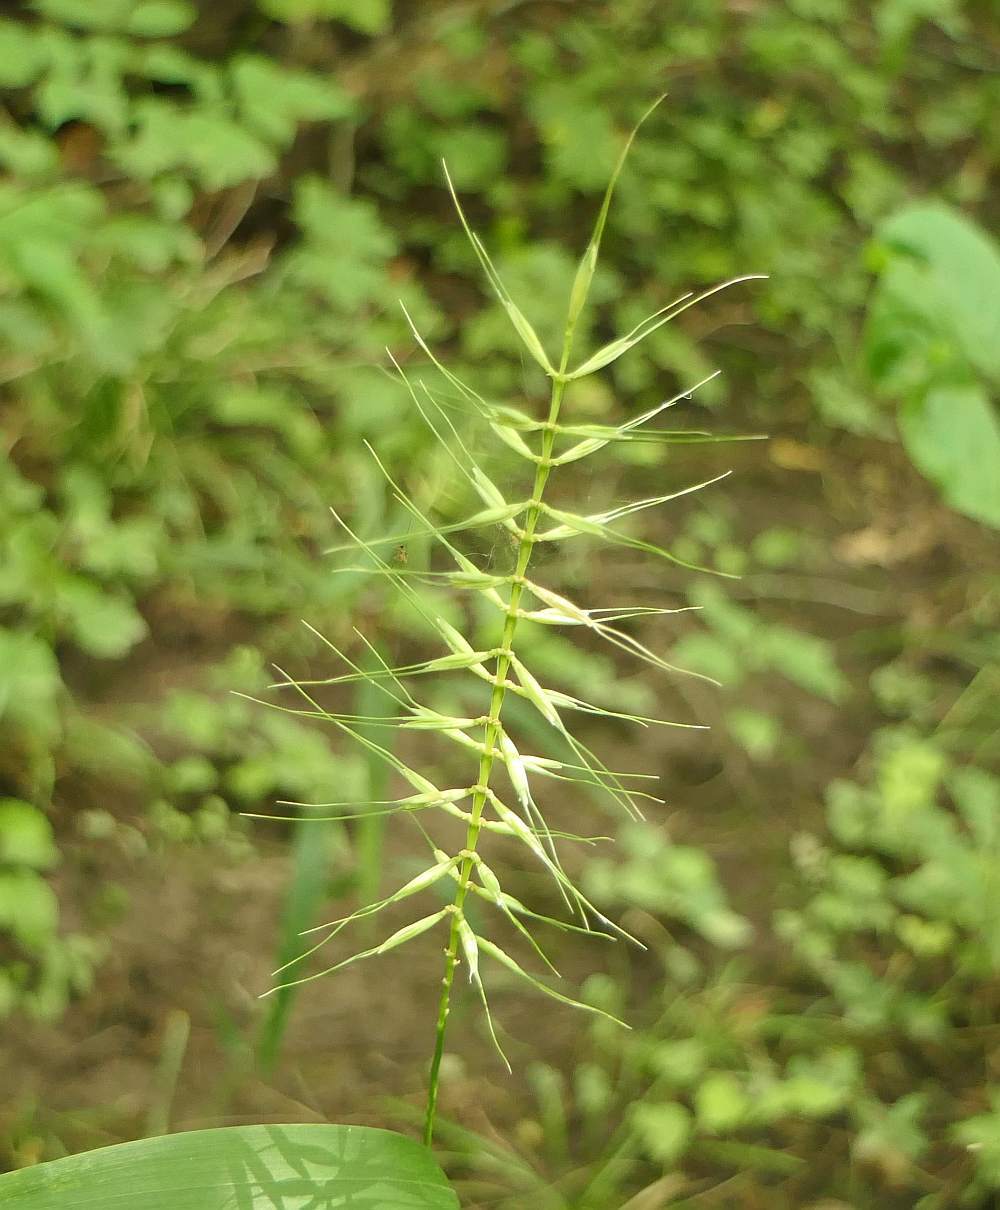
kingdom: Plantae
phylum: Tracheophyta
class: Liliopsida
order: Poales
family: Poaceae
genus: Elymus
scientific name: Elymus hystrix
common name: Bottlebrush grass
